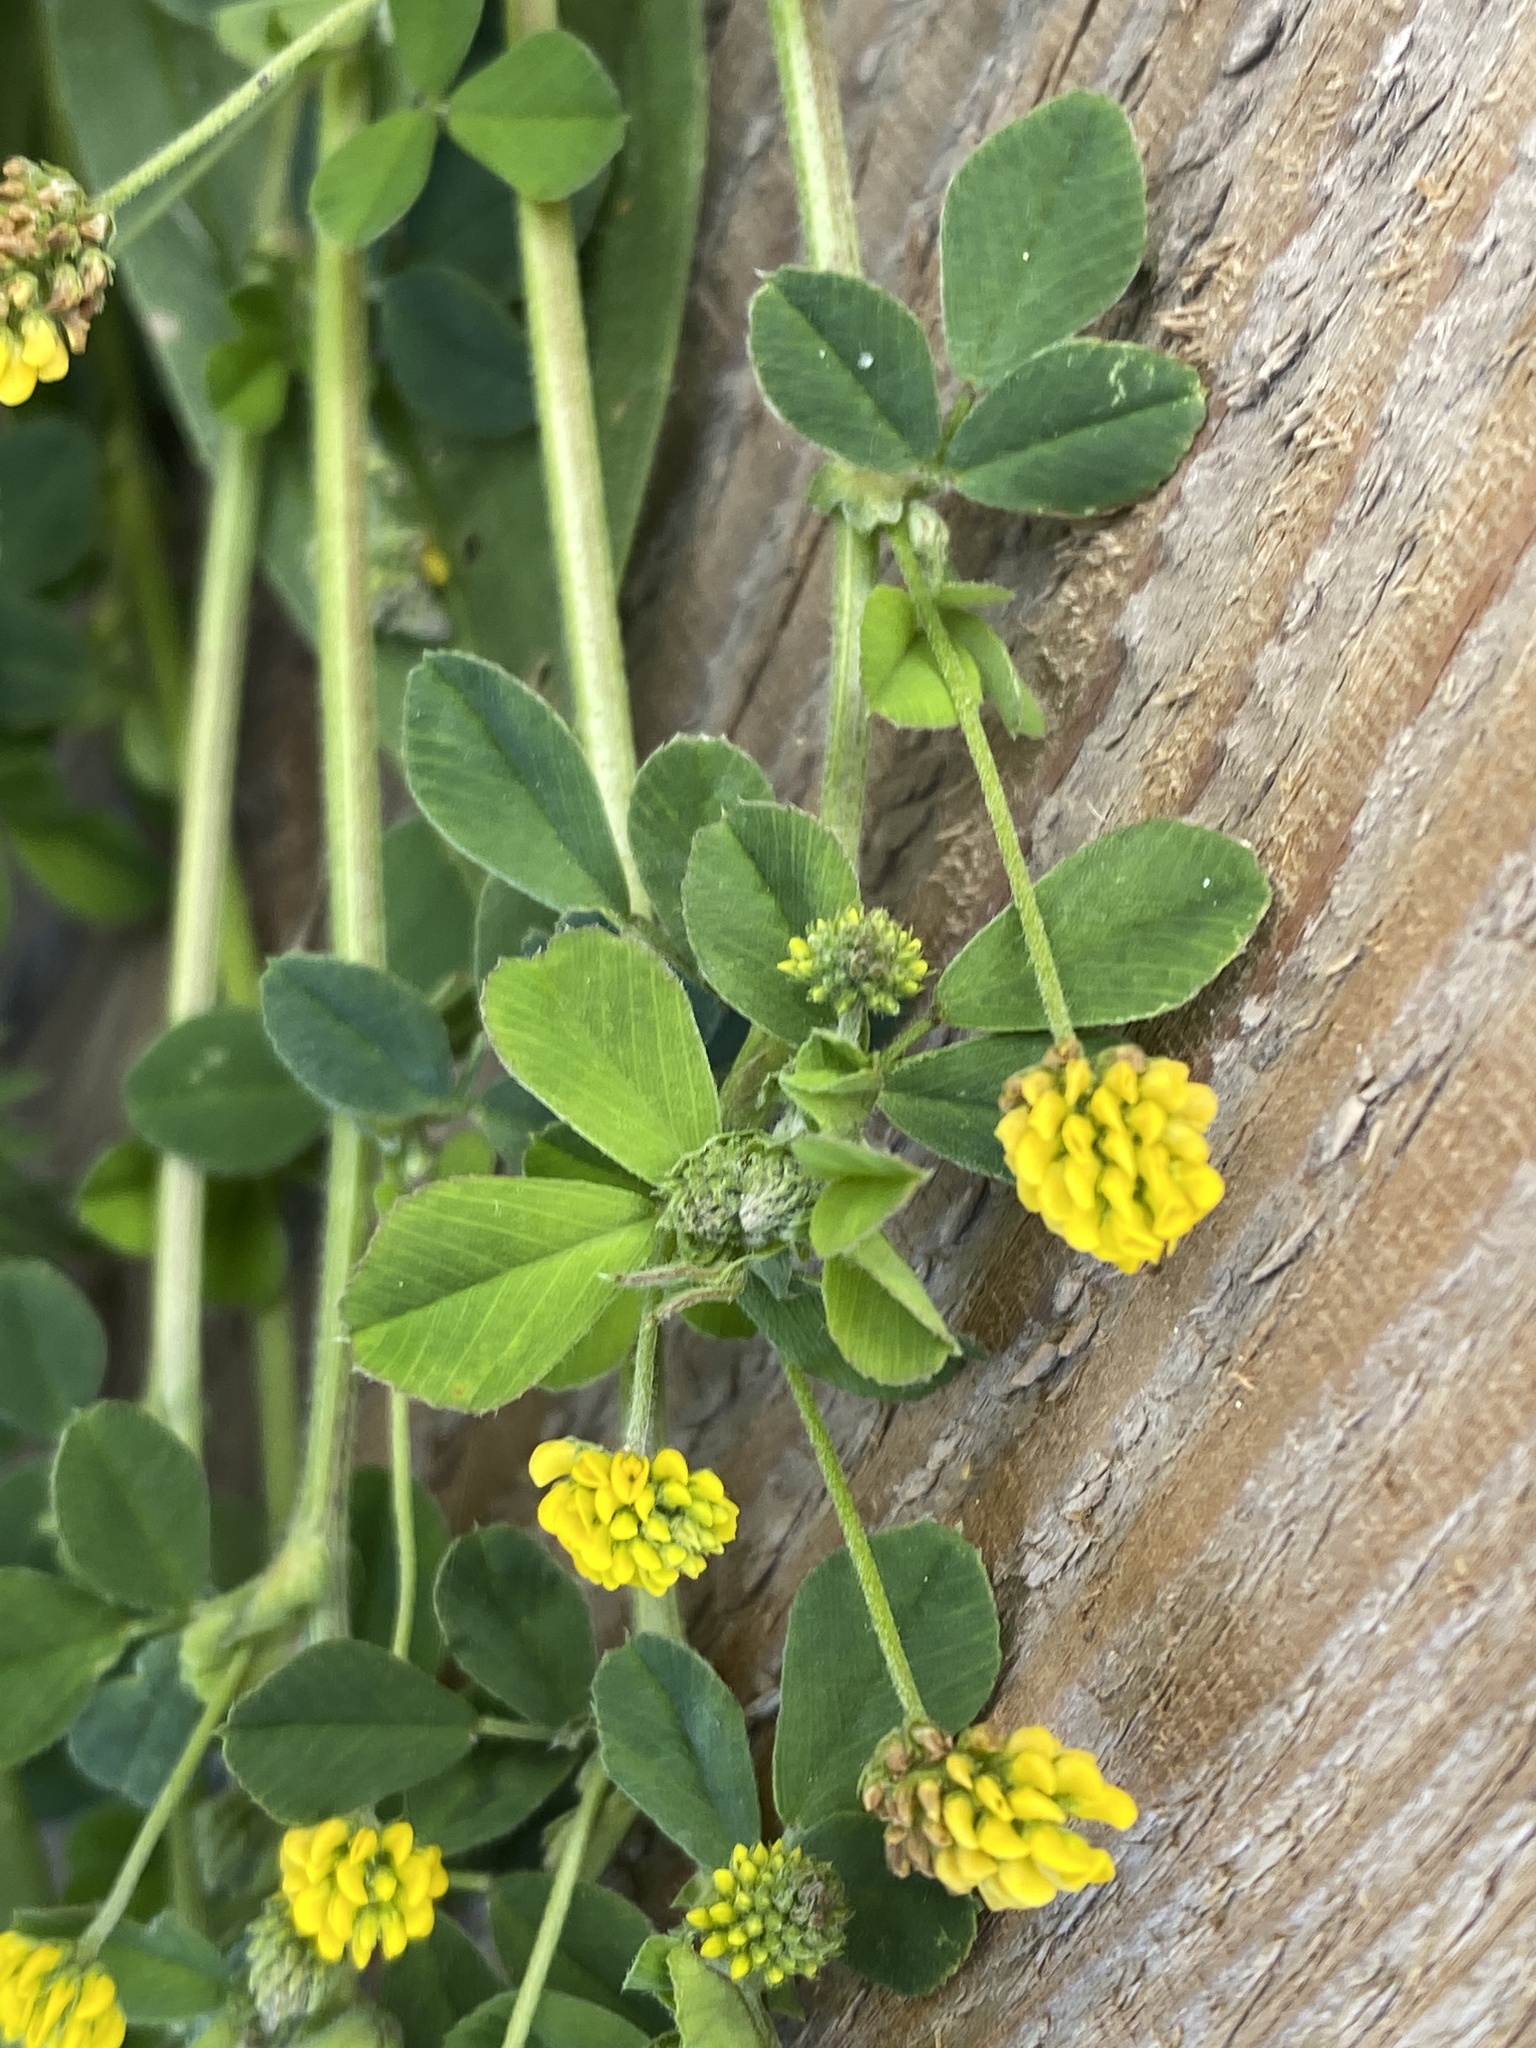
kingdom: Plantae
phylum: Tracheophyta
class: Magnoliopsida
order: Fabales
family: Fabaceae
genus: Medicago
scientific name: Medicago lupulina
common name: Black medick
